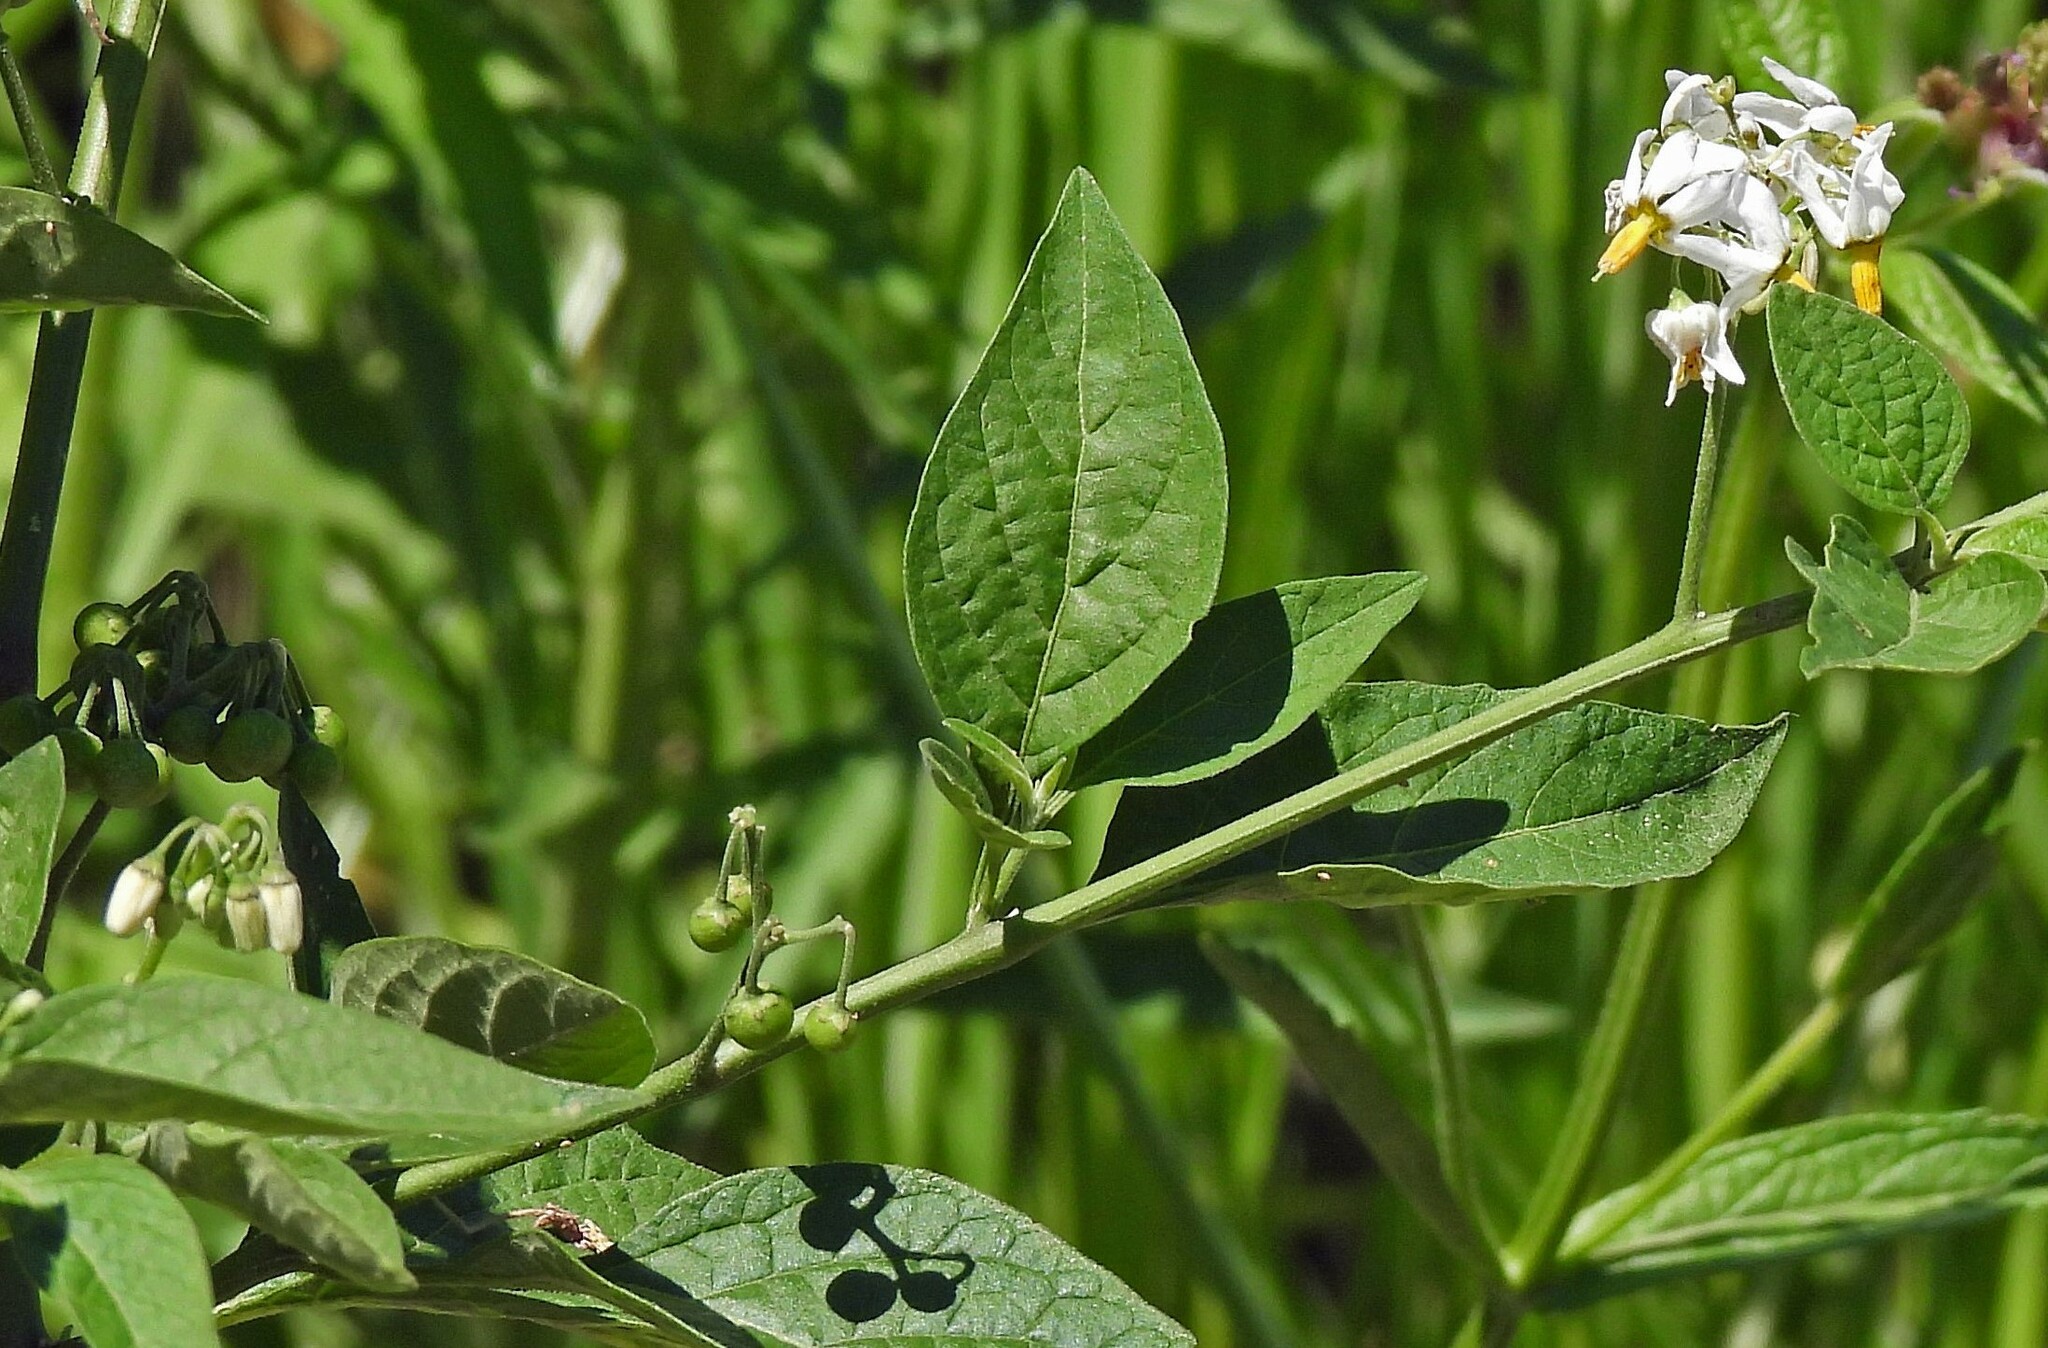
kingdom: Plantae
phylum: Tracheophyta
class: Magnoliopsida
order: Solanales
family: Solanaceae
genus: Solanum
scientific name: Solanum aloysiifolium
